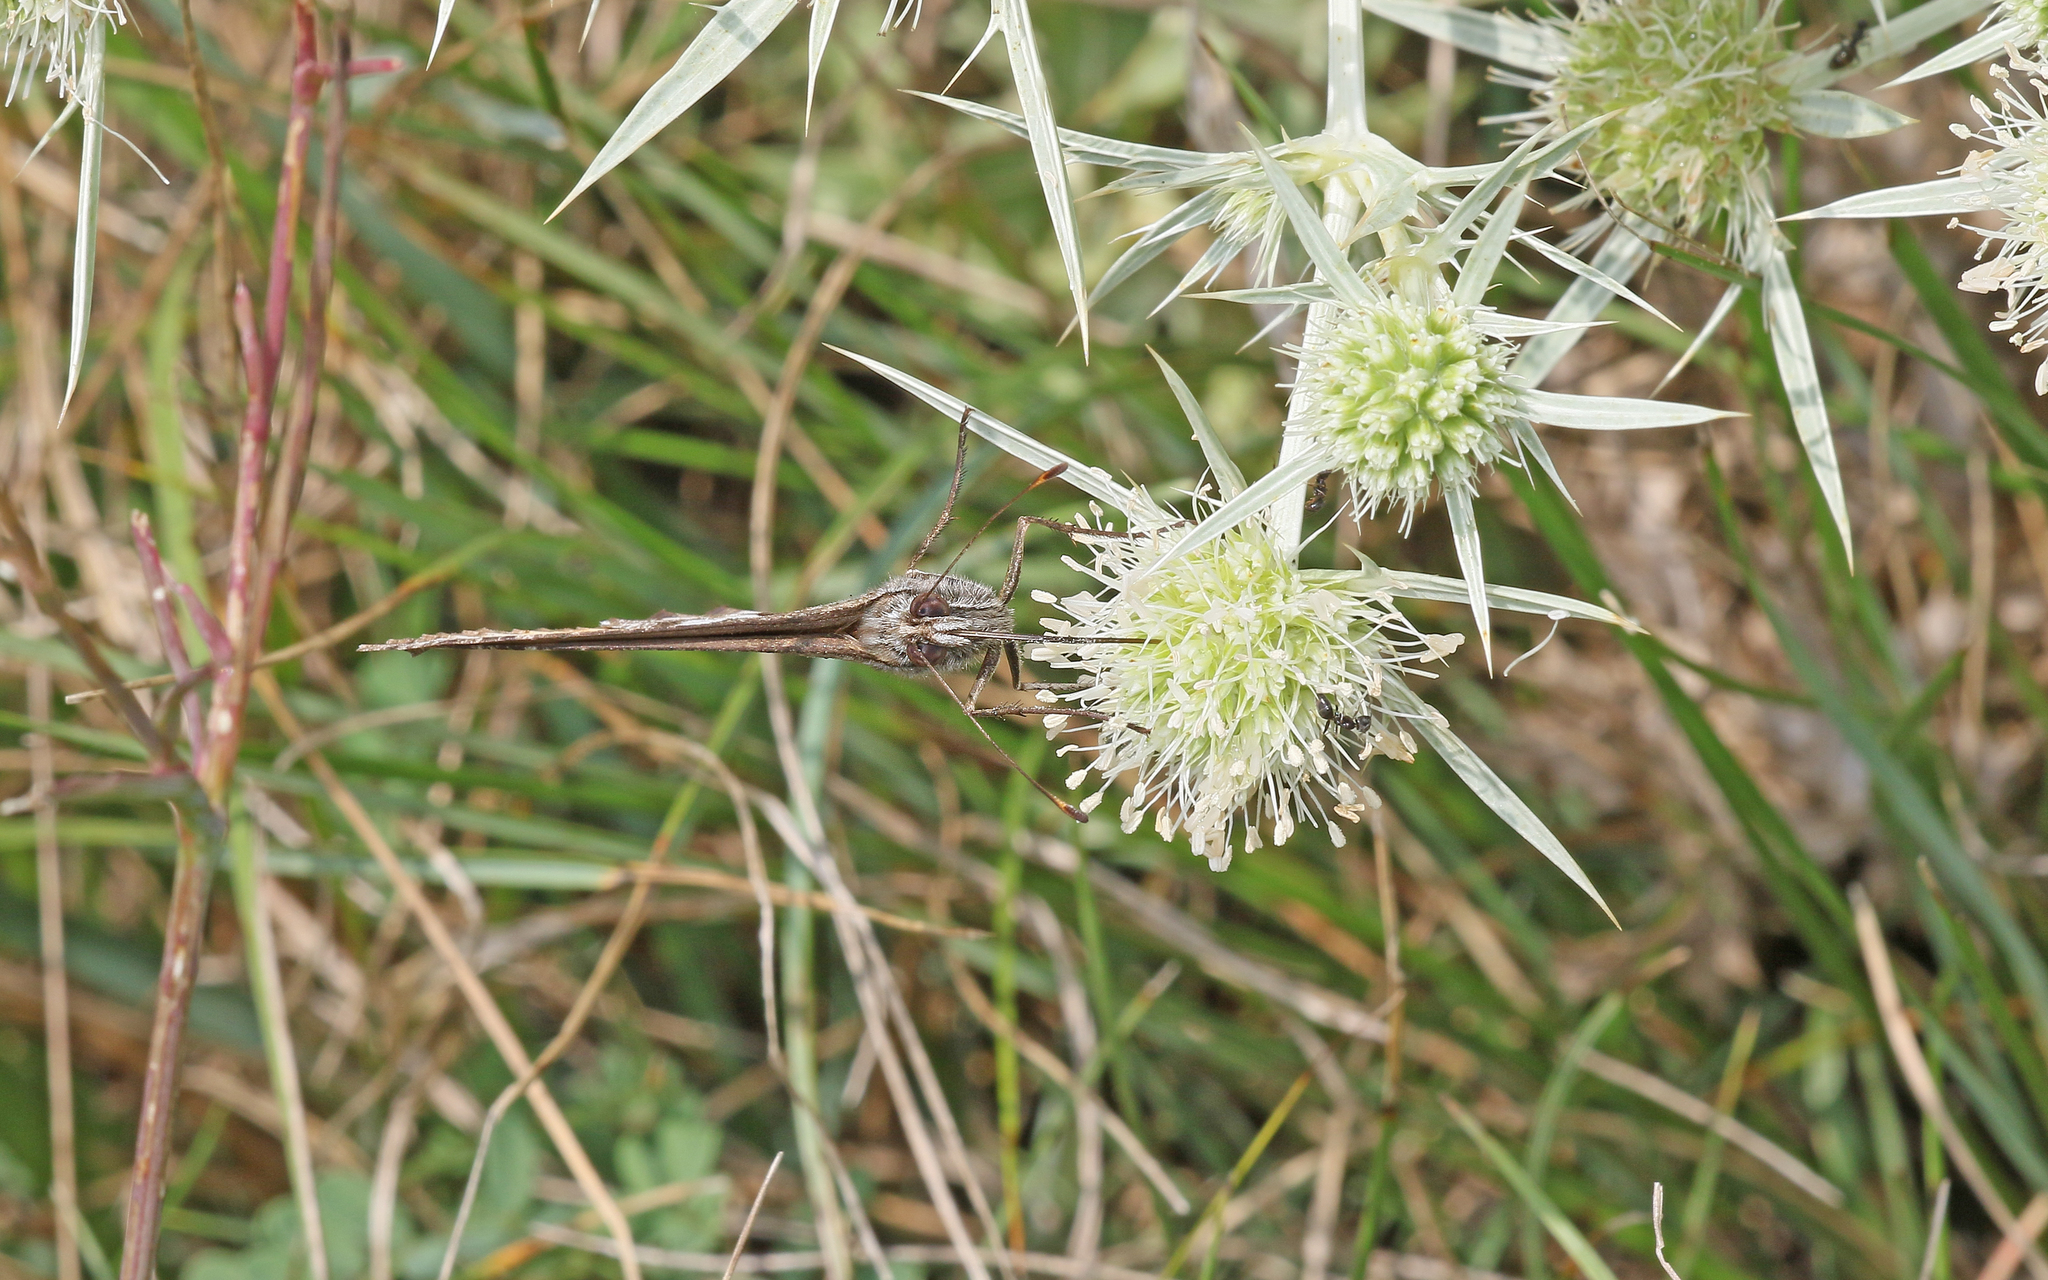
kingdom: Animalia
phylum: Arthropoda
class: Insecta
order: Lepidoptera
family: Nymphalidae
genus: Hipparchia
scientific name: Hipparchia semele
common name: Grayling
